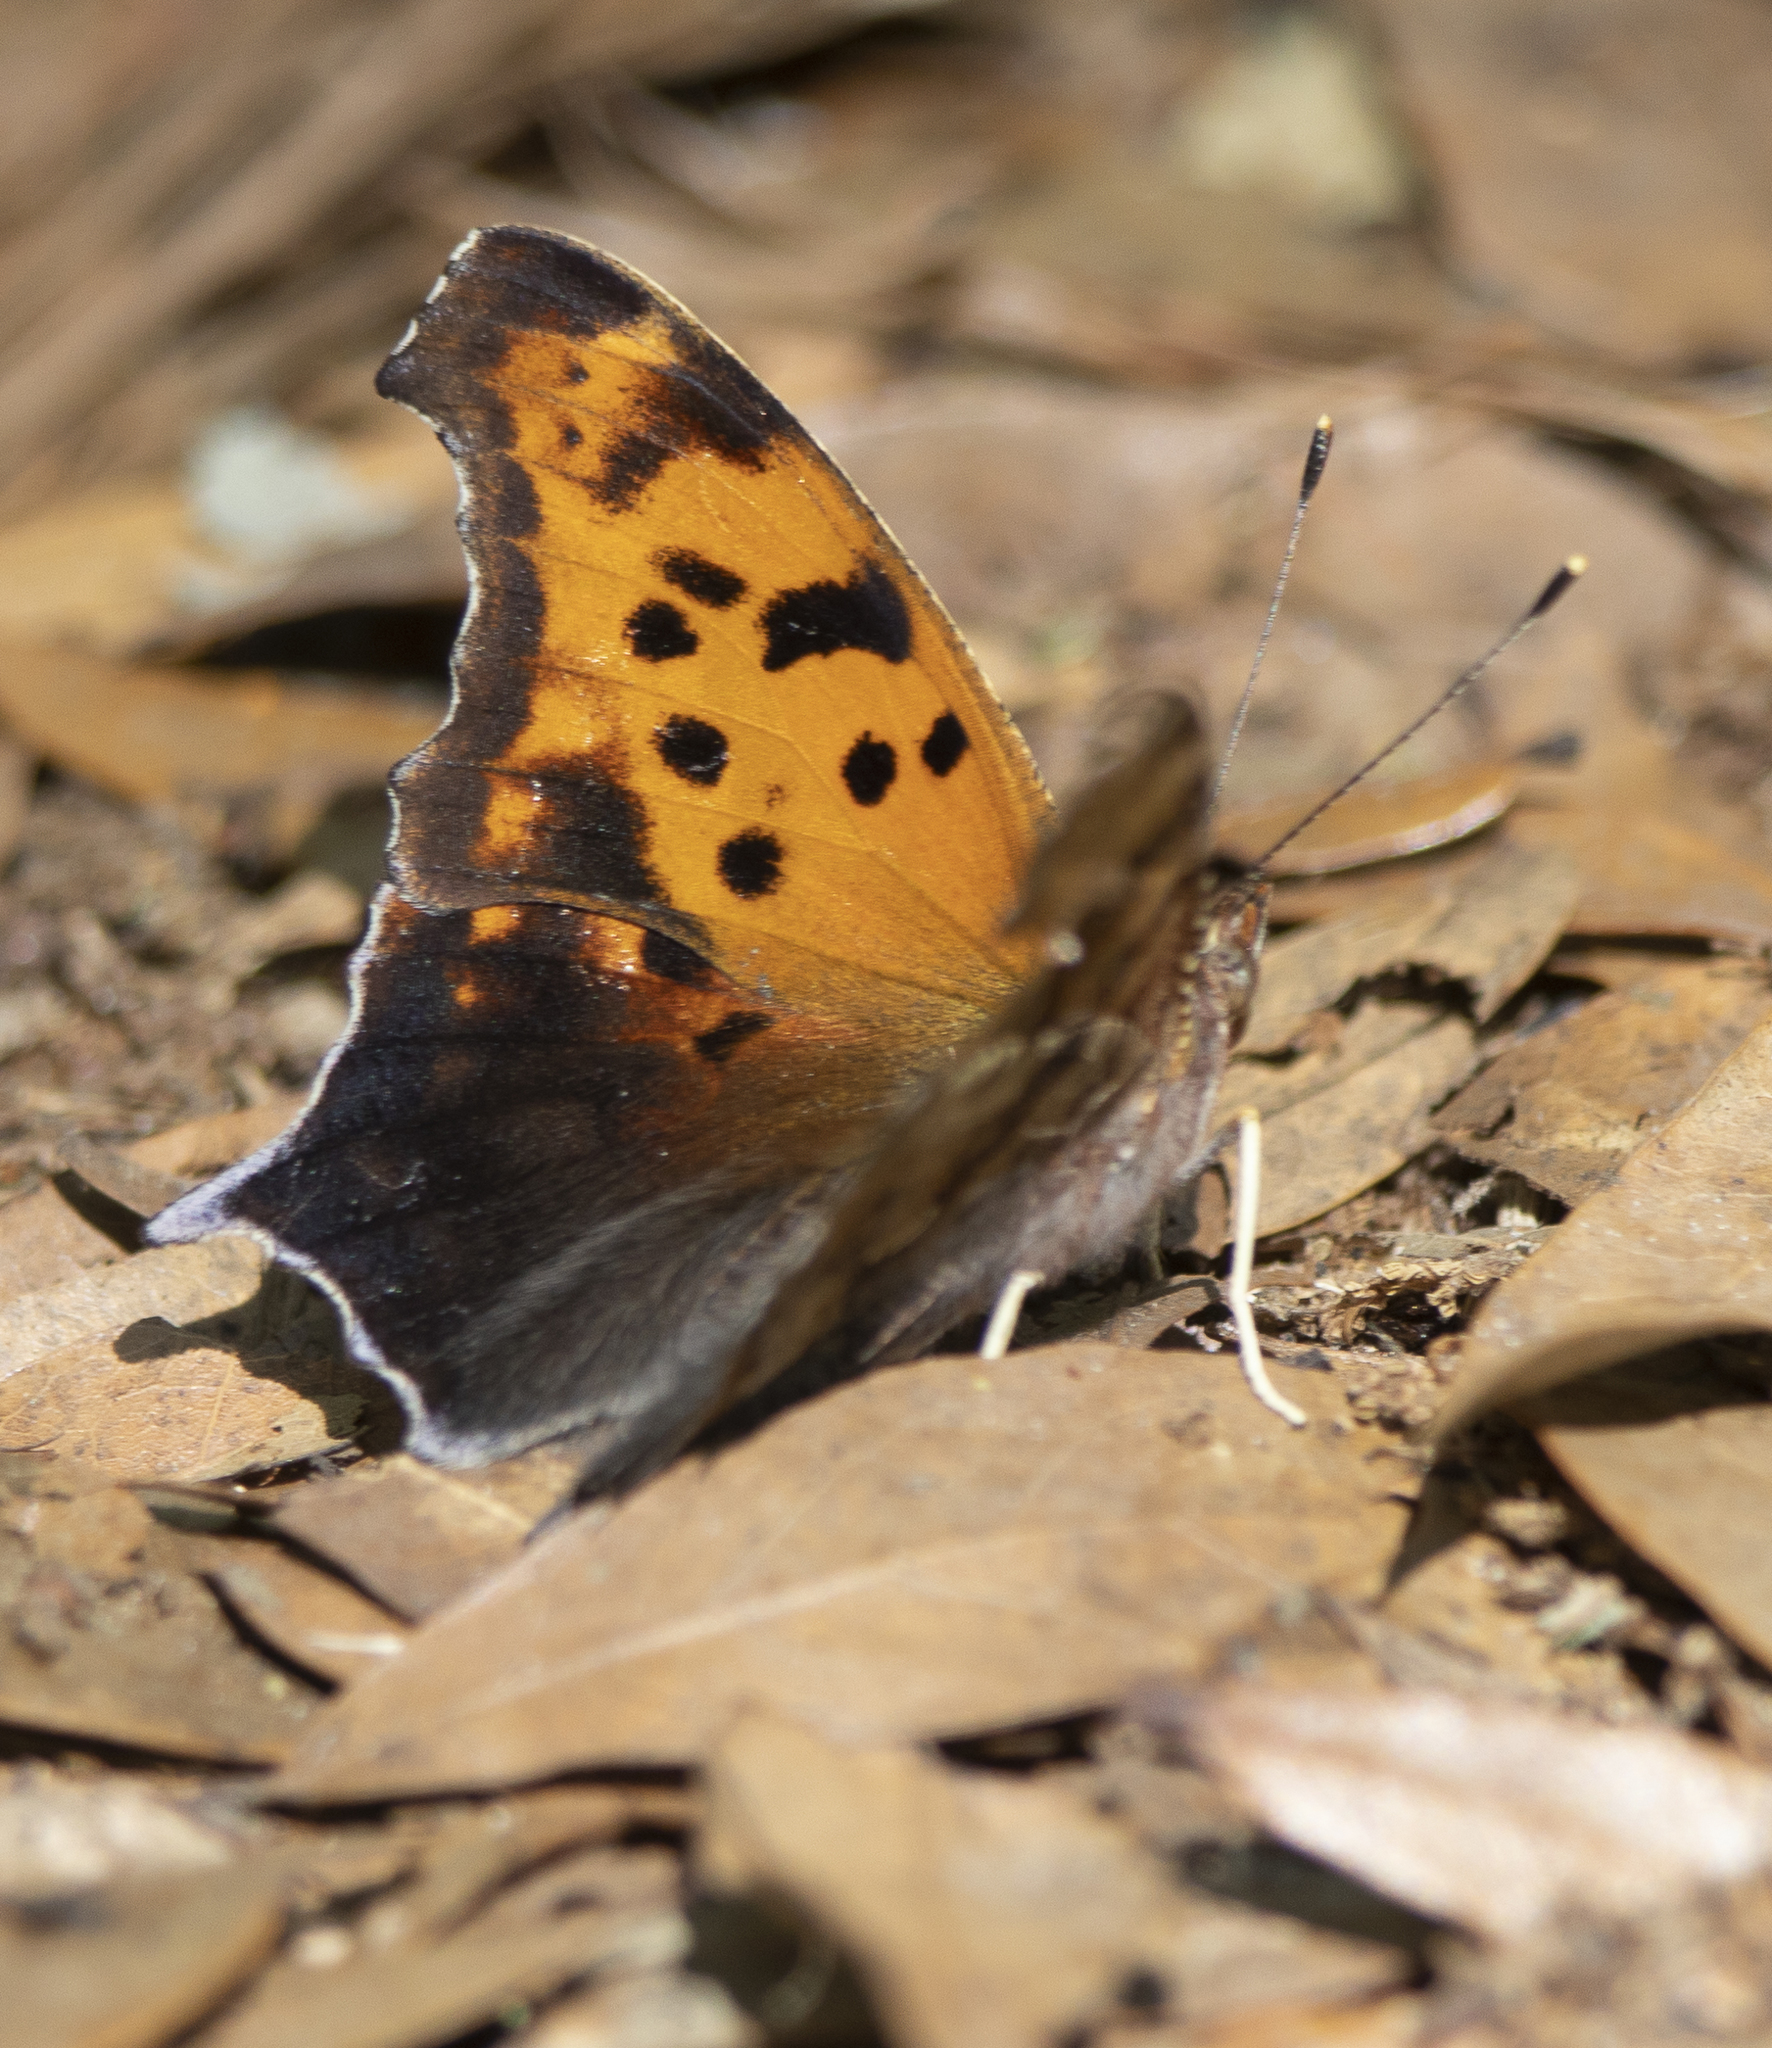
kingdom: Animalia
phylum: Arthropoda
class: Insecta
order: Lepidoptera
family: Nymphalidae
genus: Polygonia
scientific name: Polygonia interrogationis
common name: Question mark
